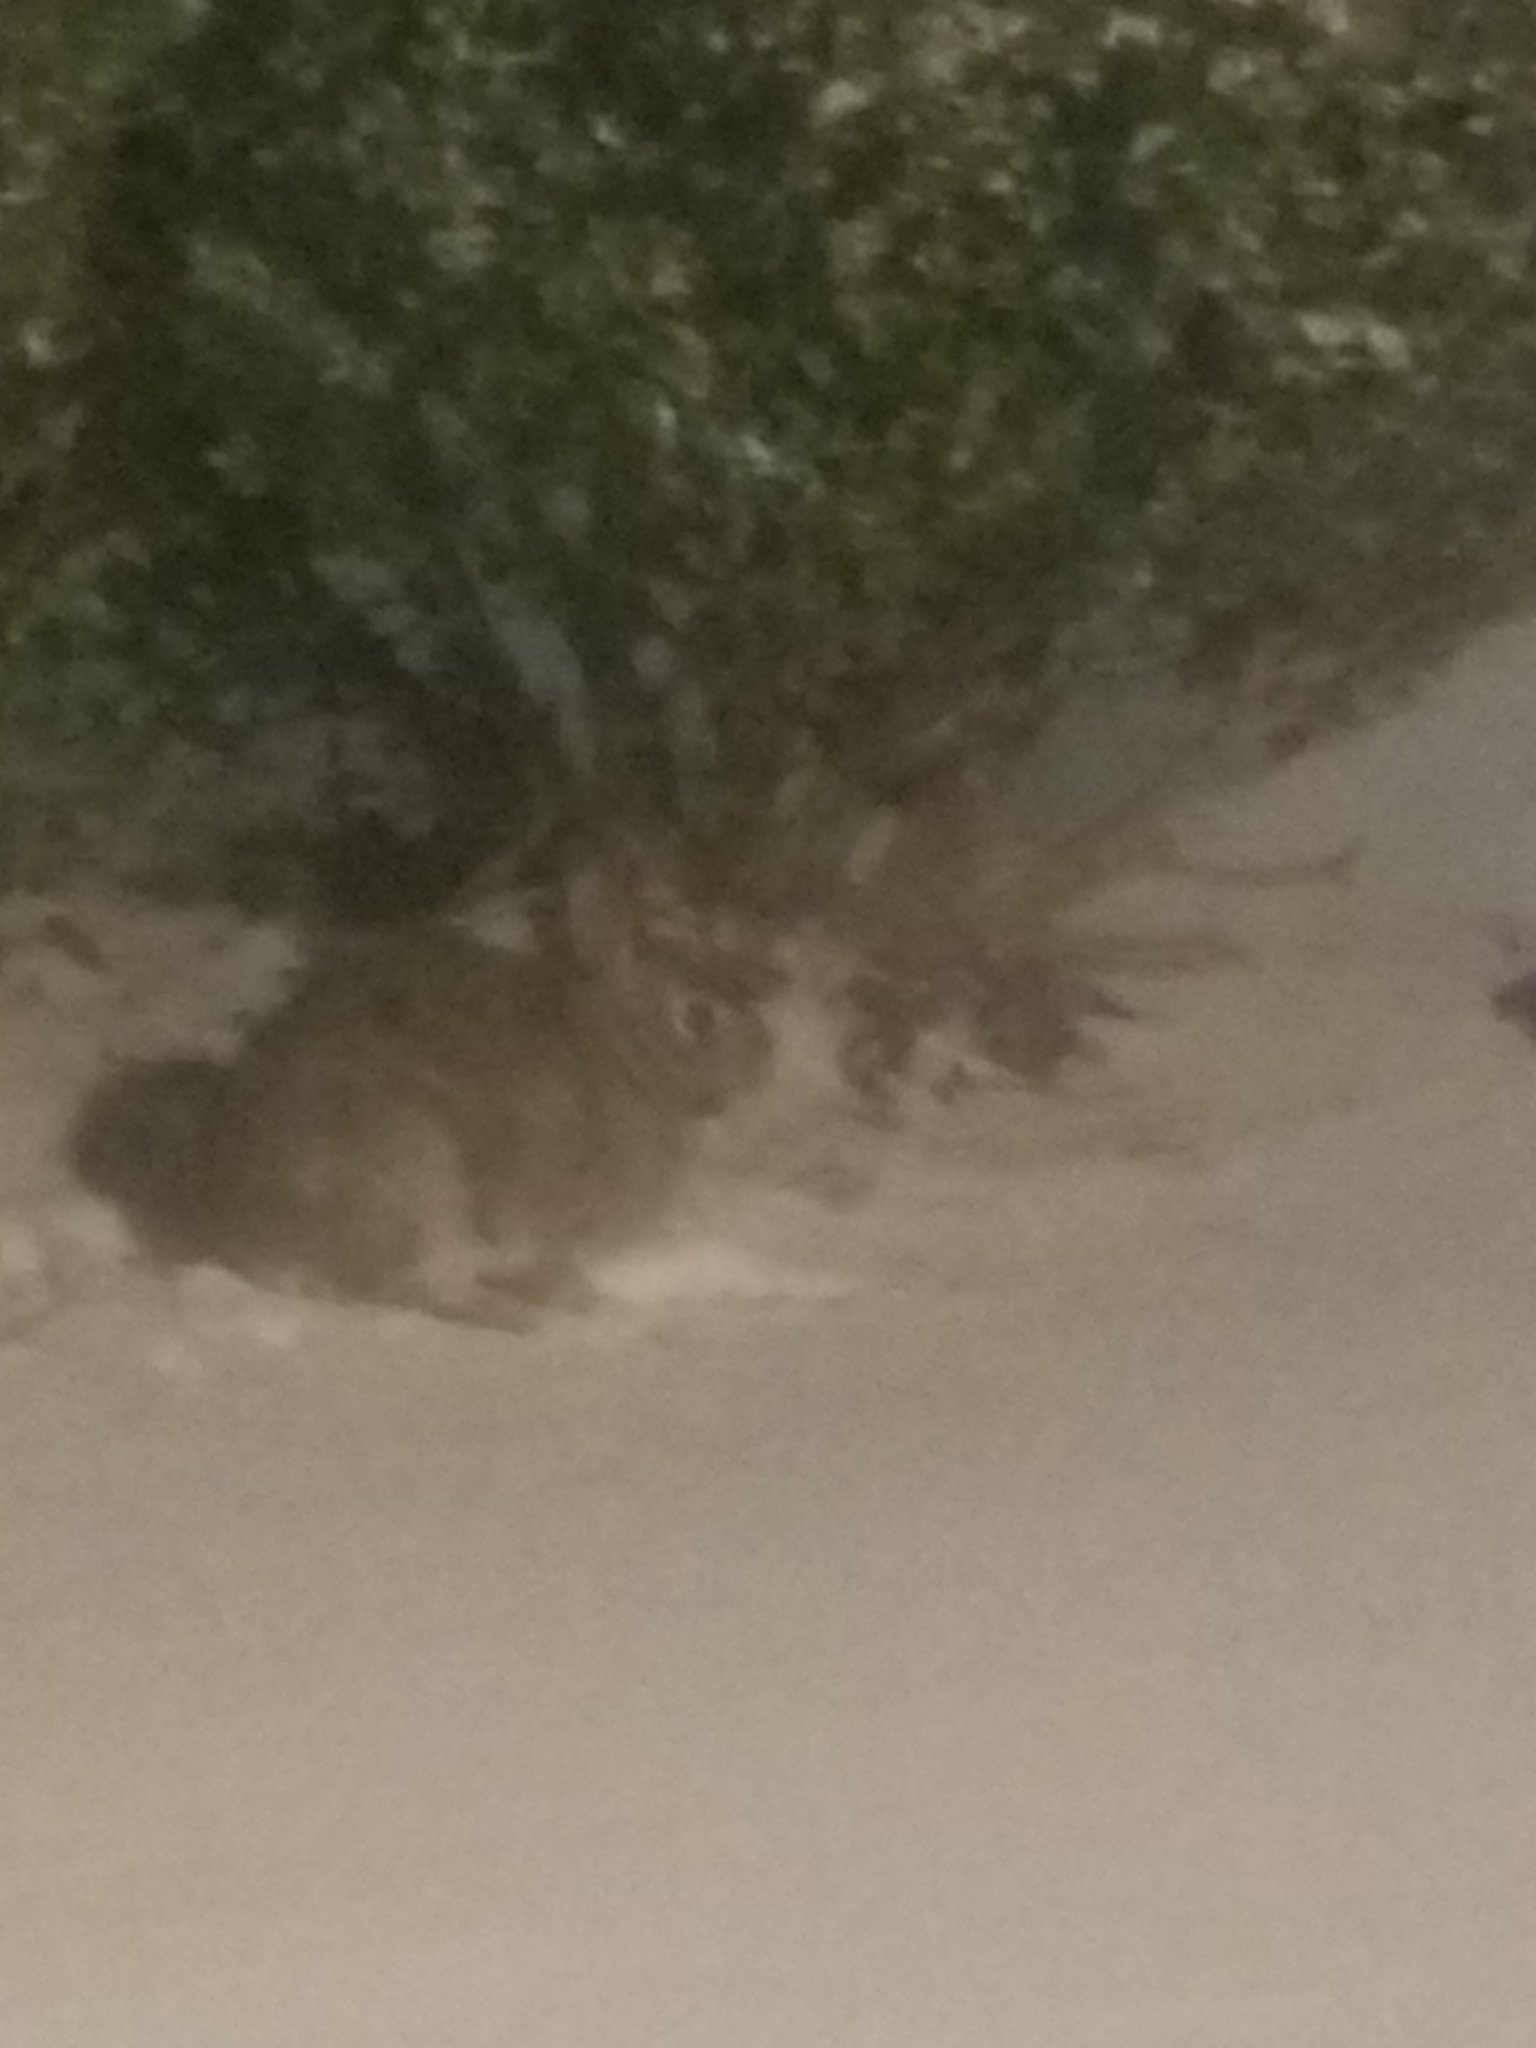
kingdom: Animalia
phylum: Chordata
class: Mammalia
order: Lagomorpha
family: Leporidae
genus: Sylvilagus
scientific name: Sylvilagus floridanus
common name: Eastern cottontail
